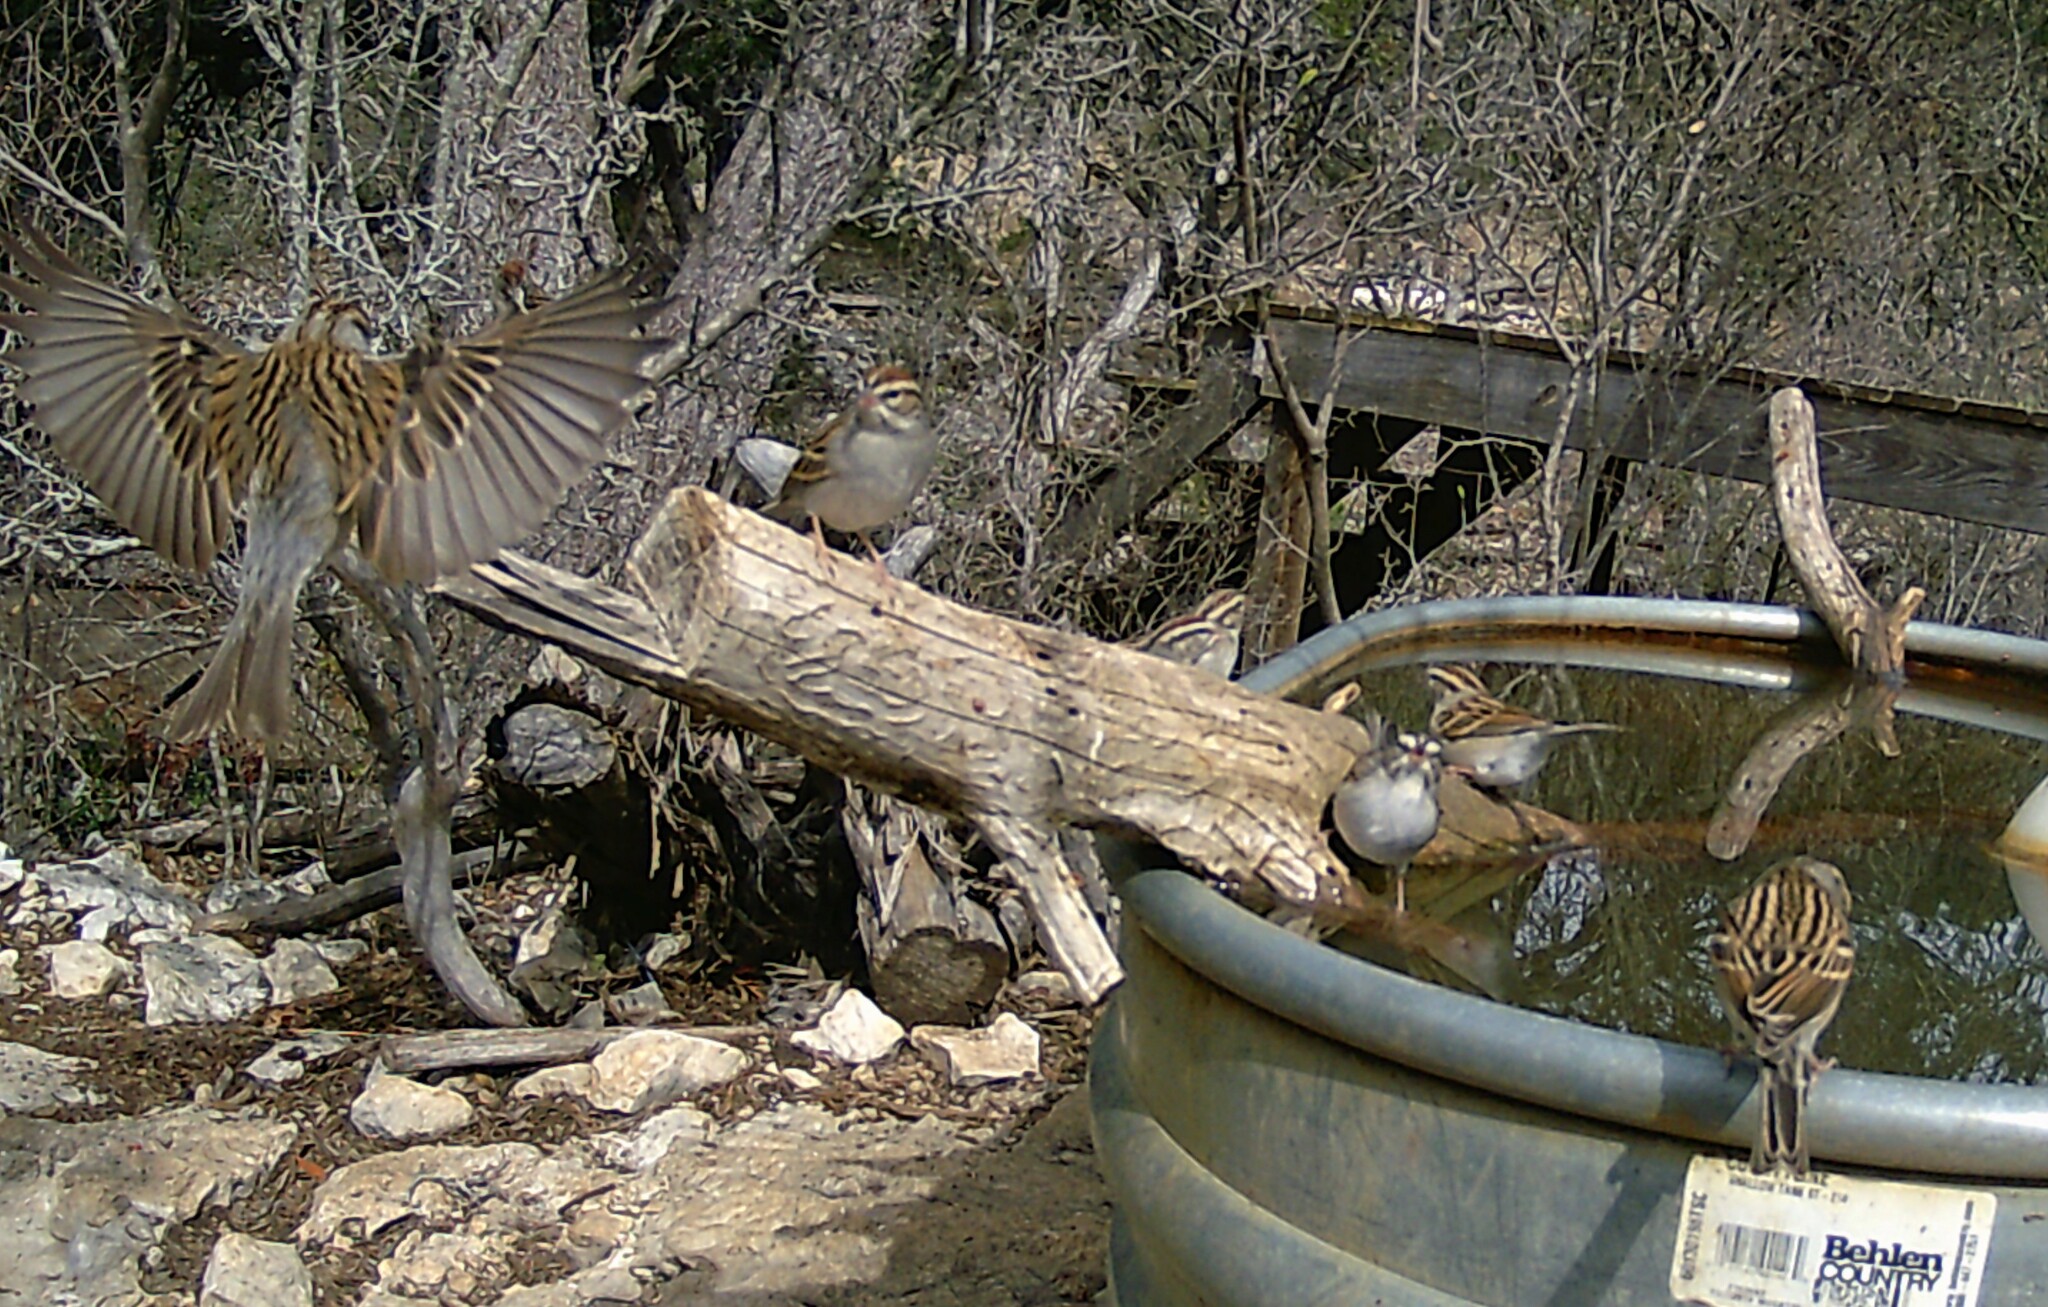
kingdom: Animalia
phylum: Chordata
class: Aves
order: Passeriformes
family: Passerellidae
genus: Spizella
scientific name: Spizella passerina
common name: Chipping sparrow
